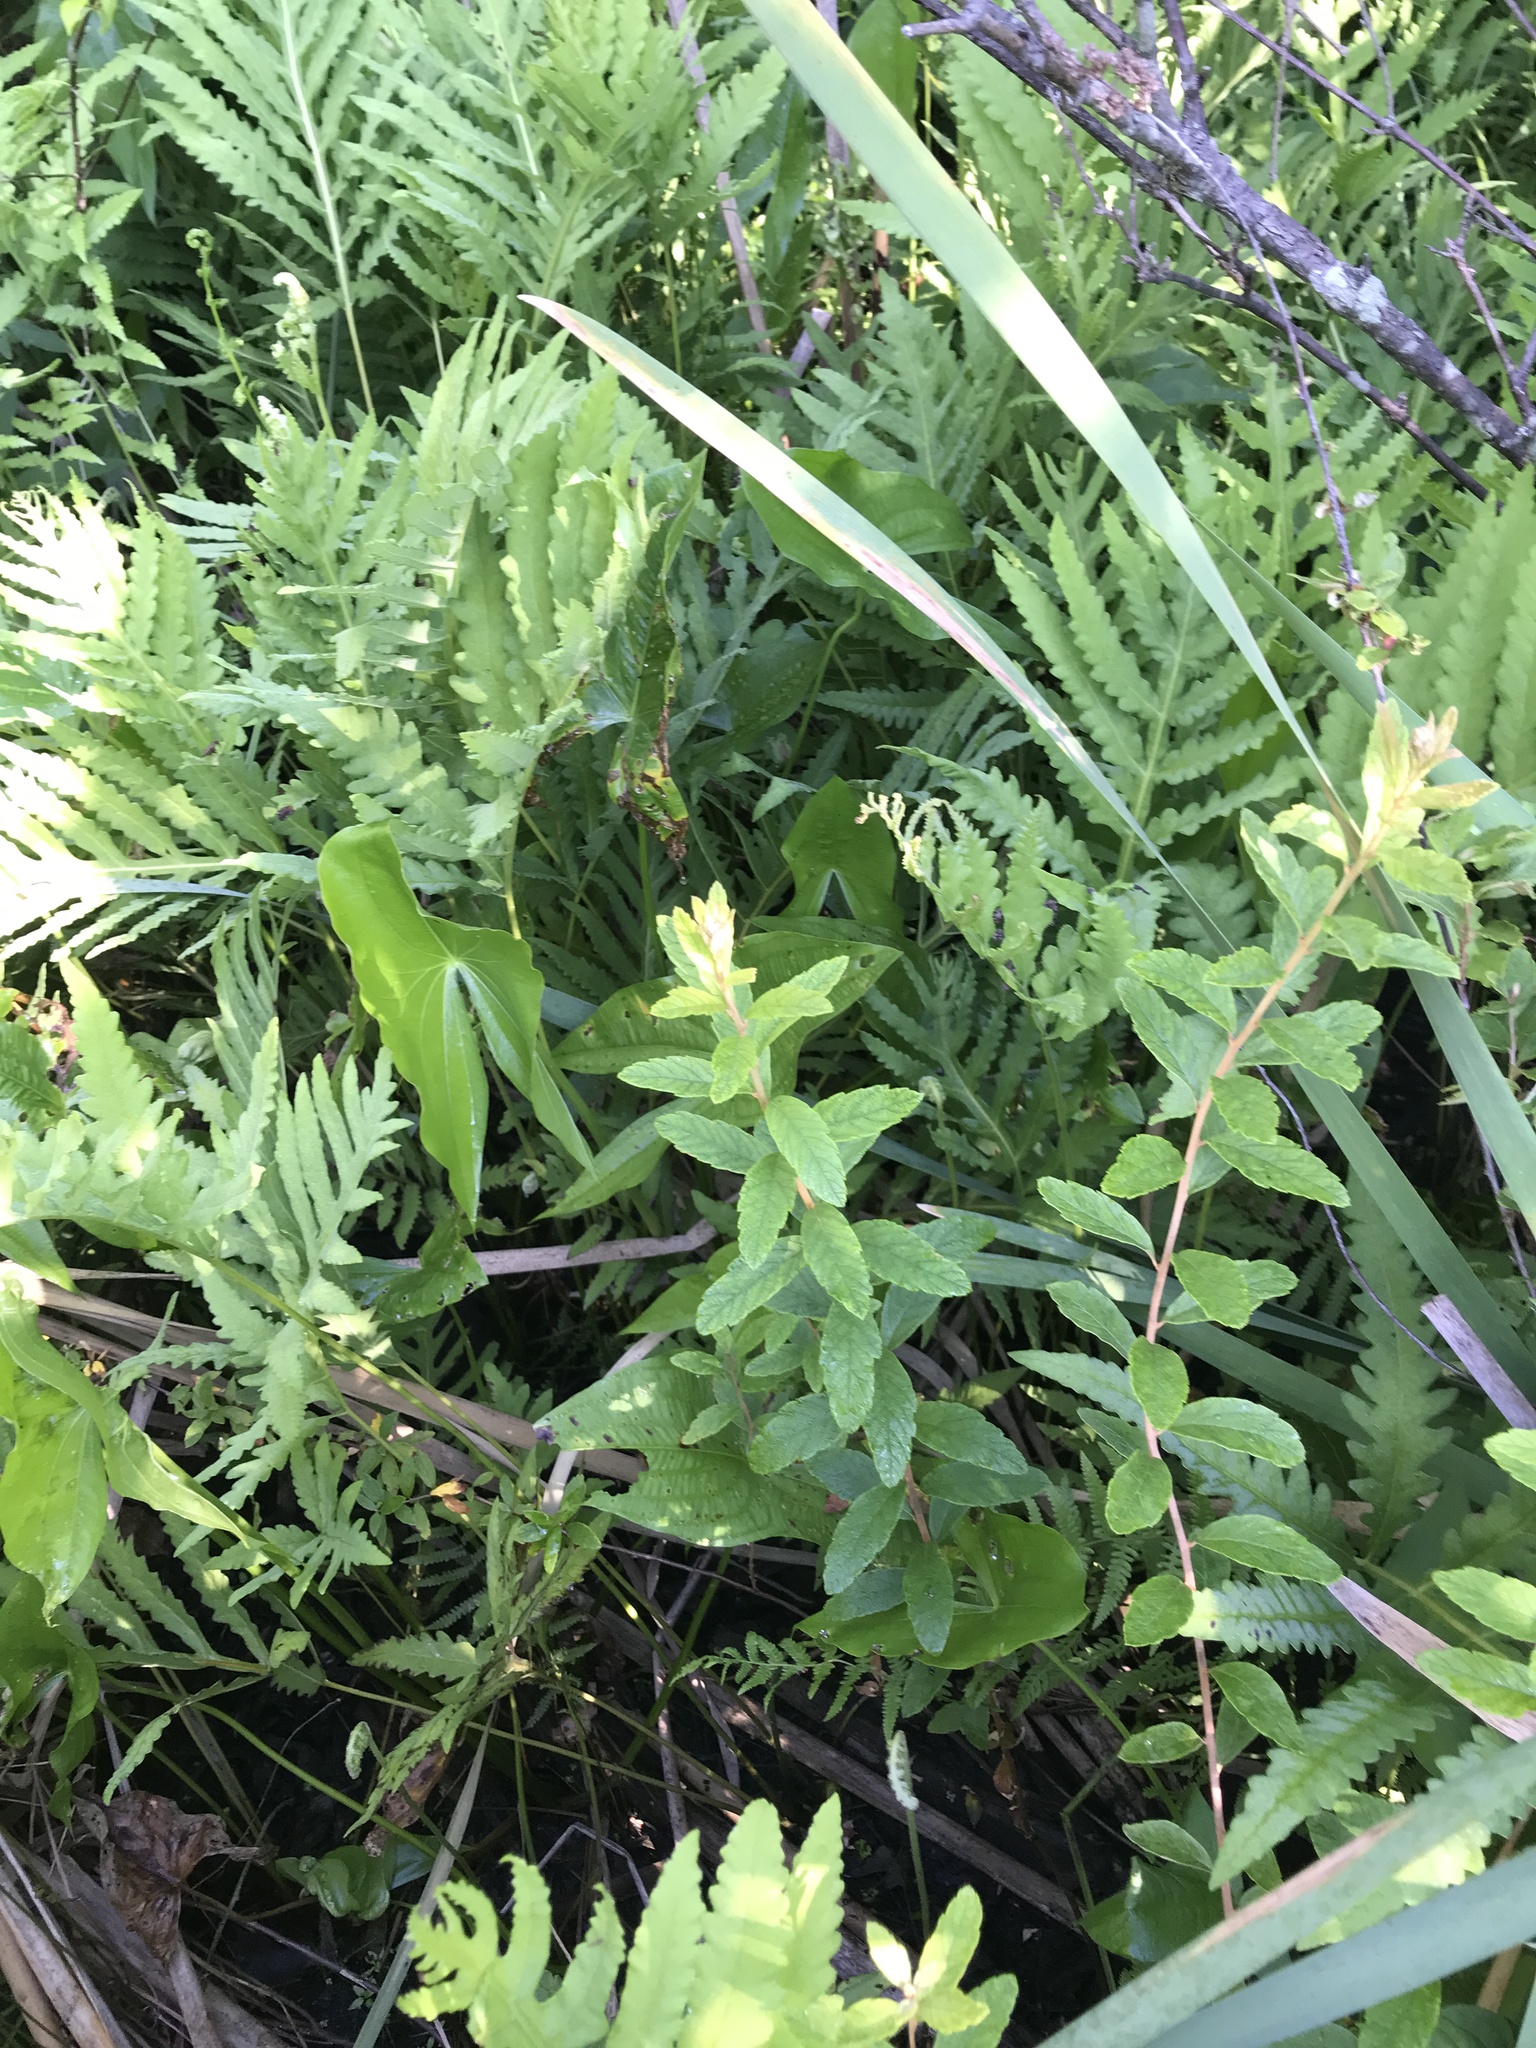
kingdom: Plantae
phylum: Tracheophyta
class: Liliopsida
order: Alismatales
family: Alismataceae
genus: Sagittaria
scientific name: Sagittaria latifolia
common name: Duck-potato
